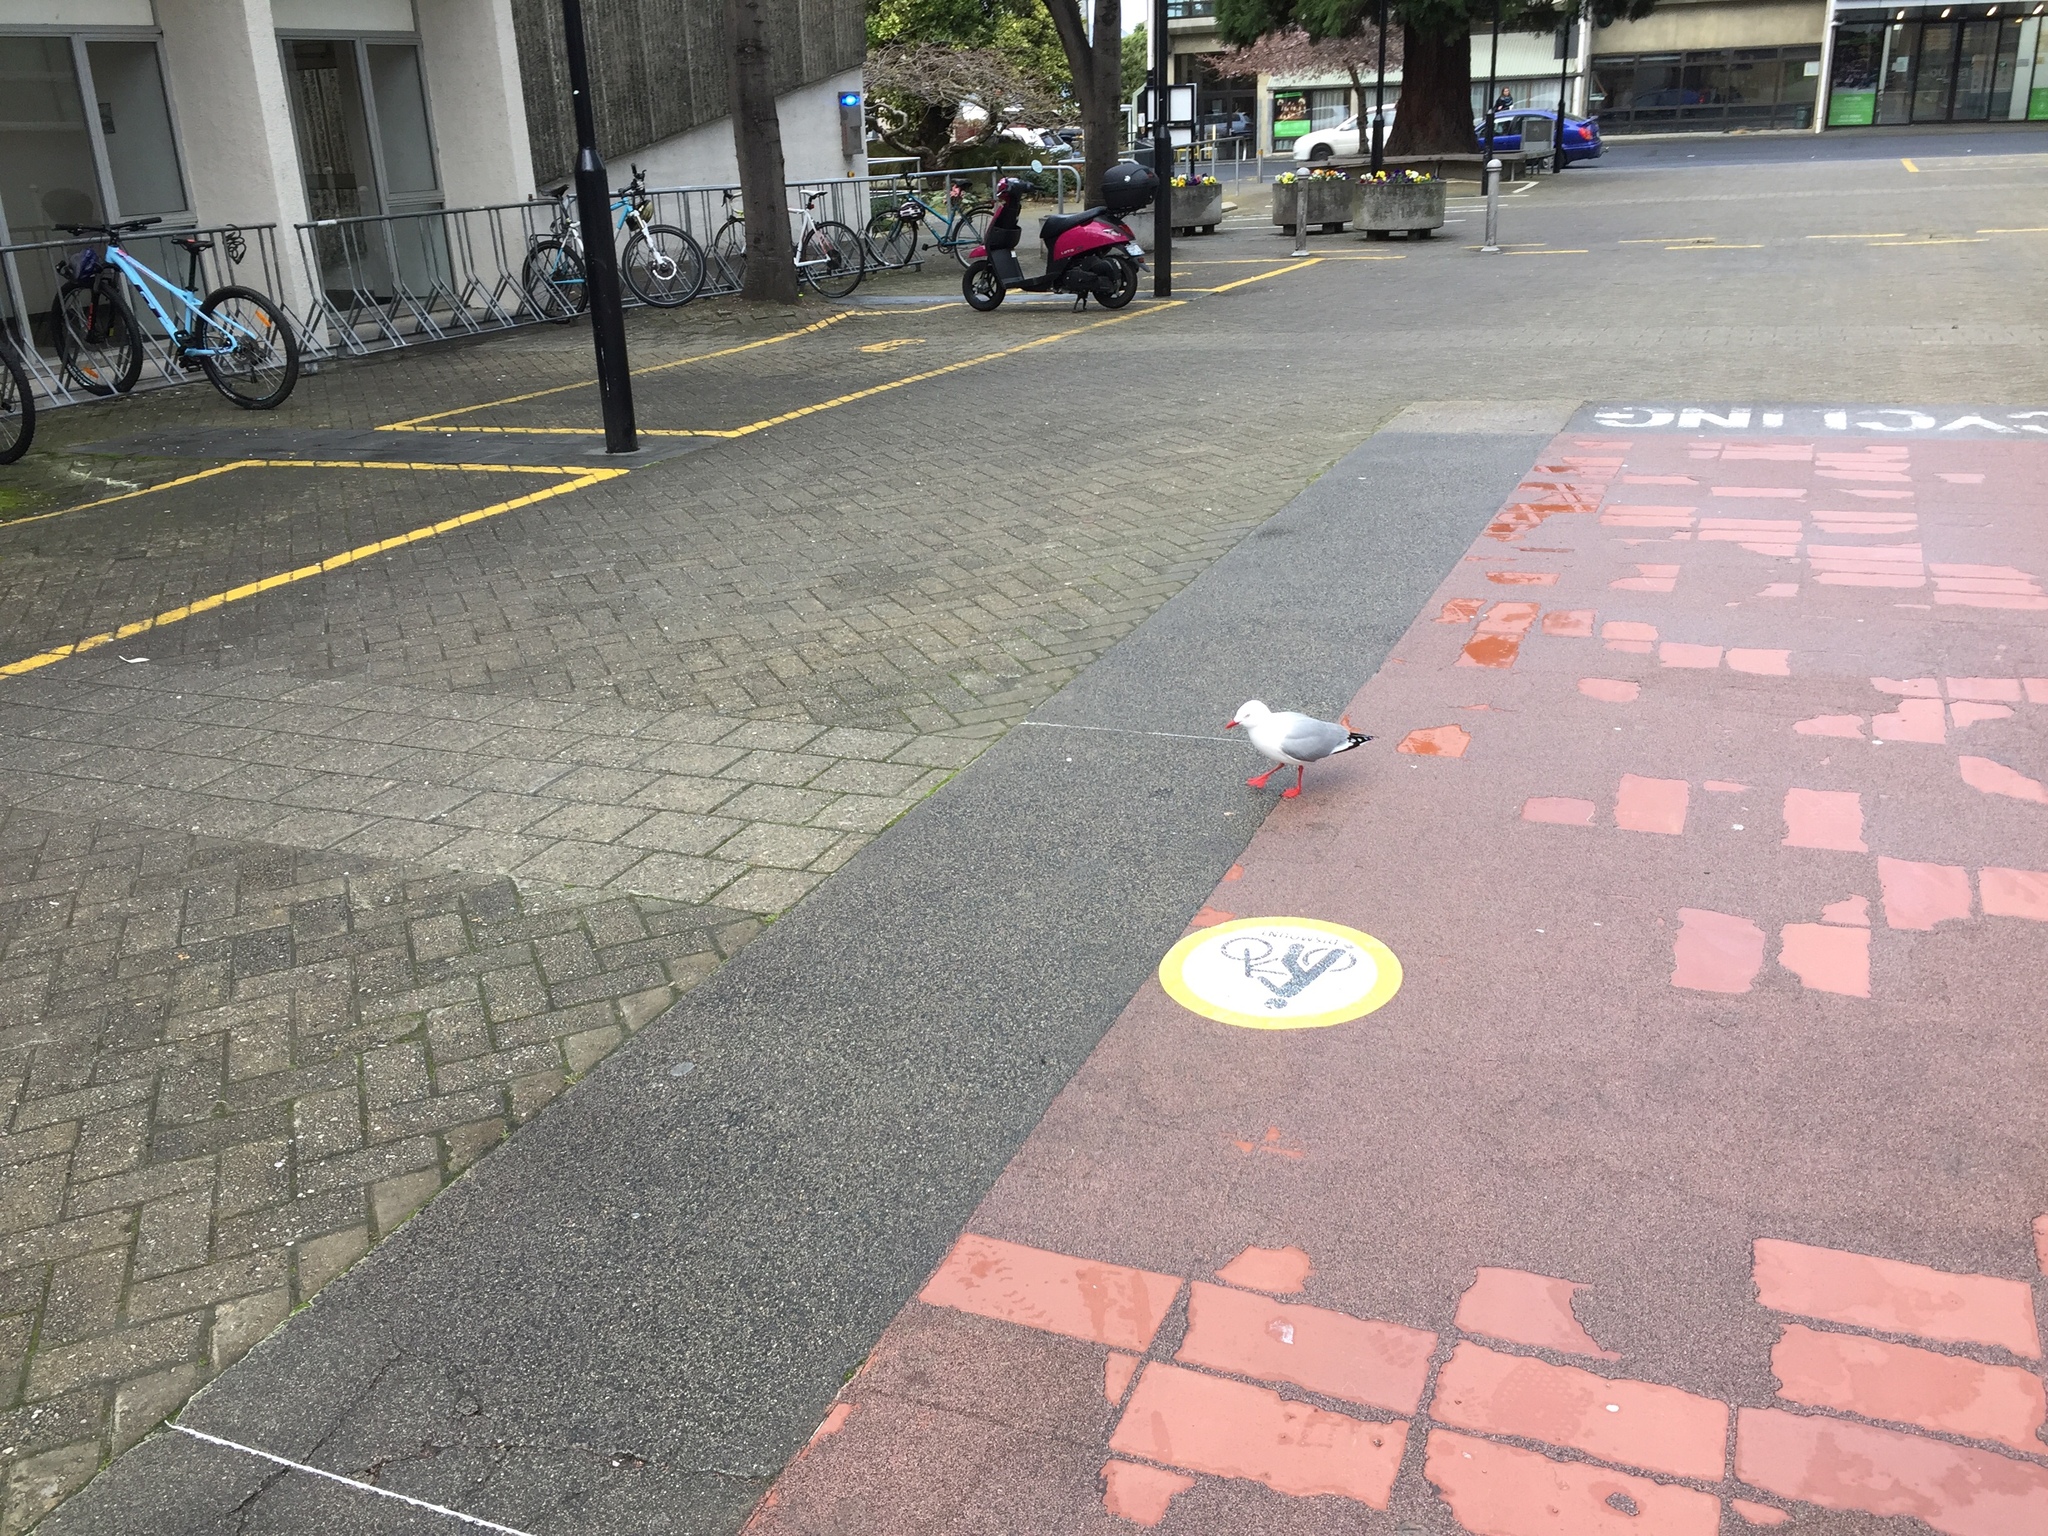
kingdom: Animalia
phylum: Chordata
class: Aves
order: Charadriiformes
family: Laridae
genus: Chroicocephalus
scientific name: Chroicocephalus novaehollandiae
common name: Silver gull
